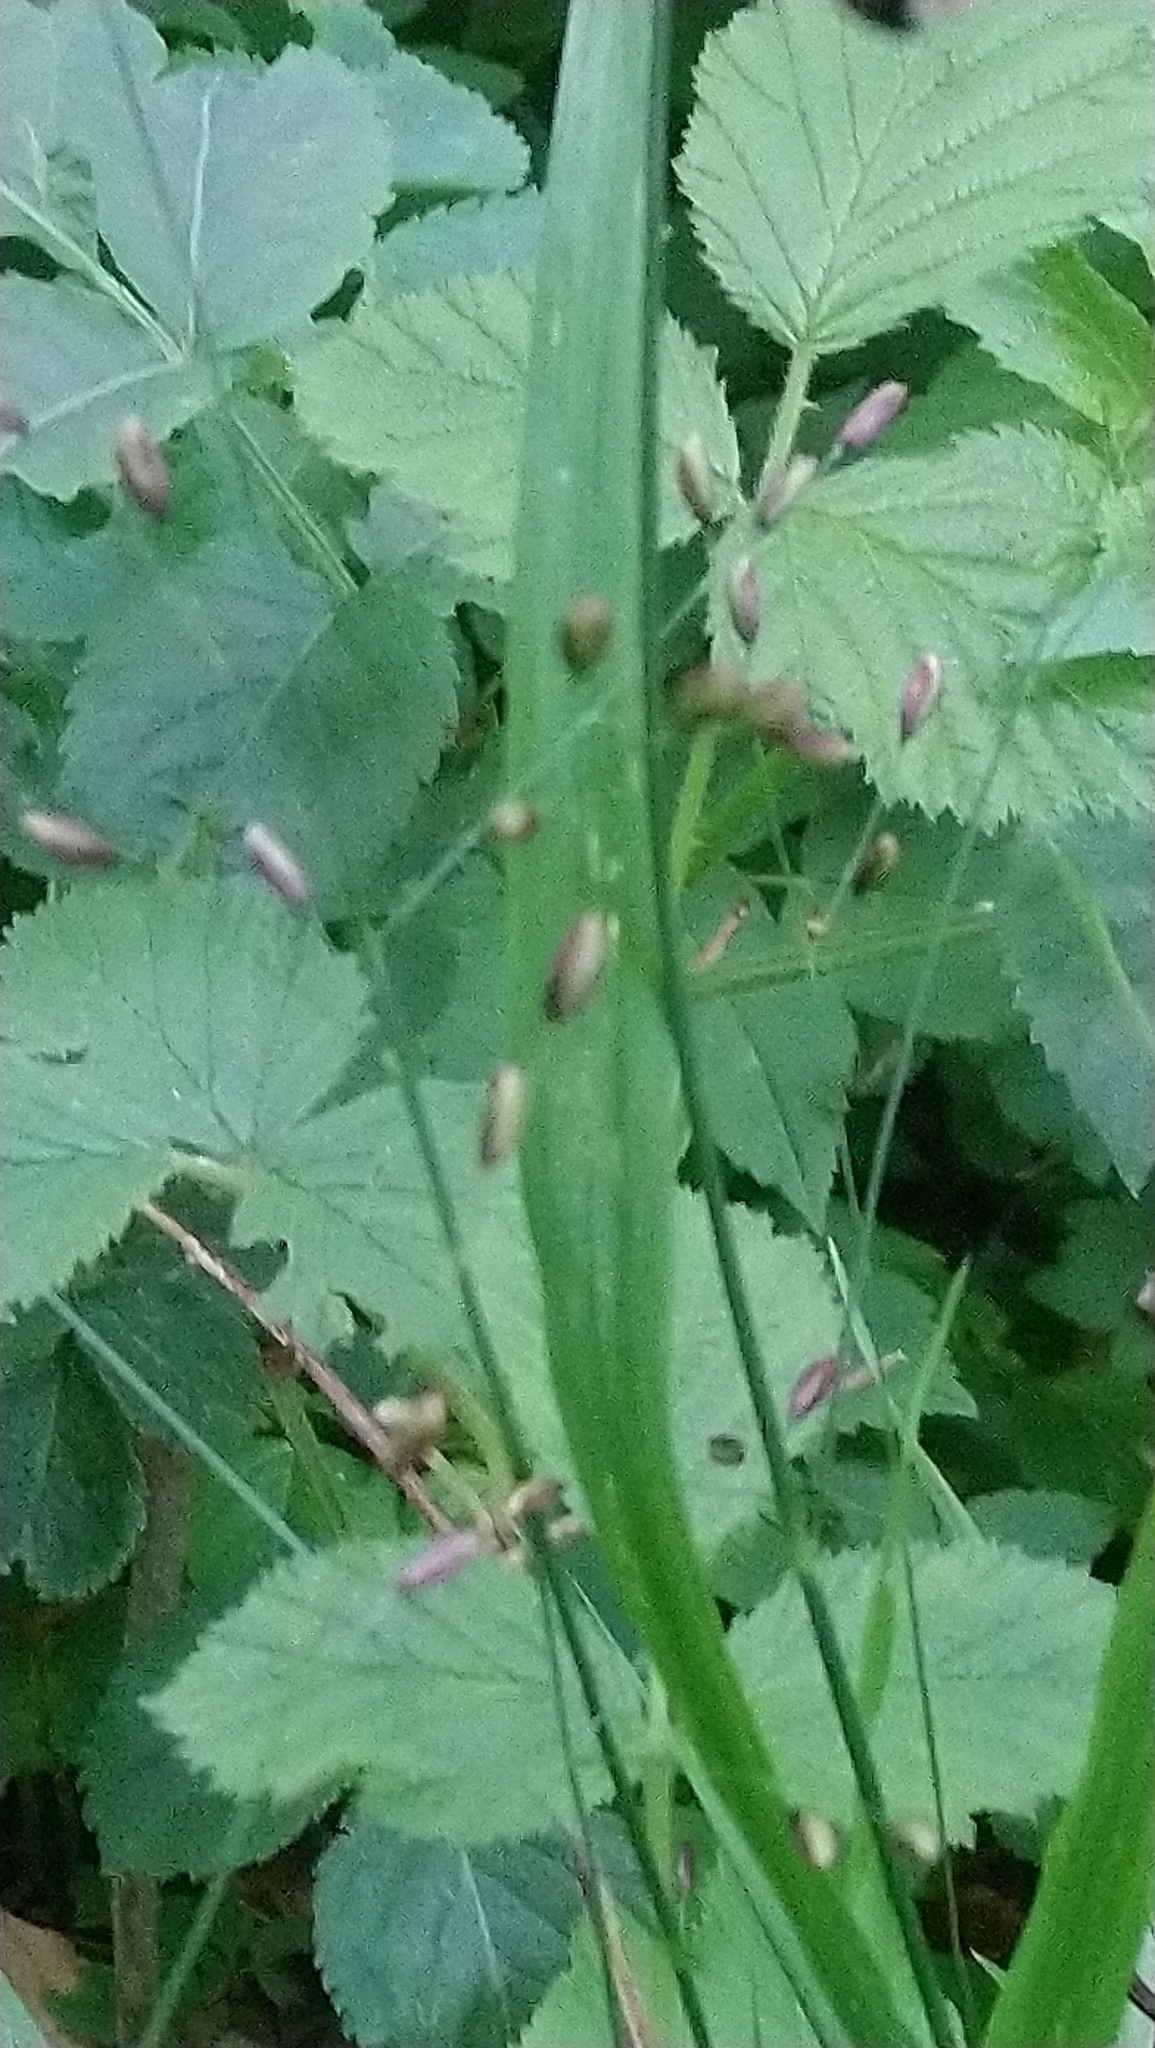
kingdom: Plantae
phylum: Tracheophyta
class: Liliopsida
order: Poales
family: Poaceae
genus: Melica
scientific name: Melica uniflora
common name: Wood melick
